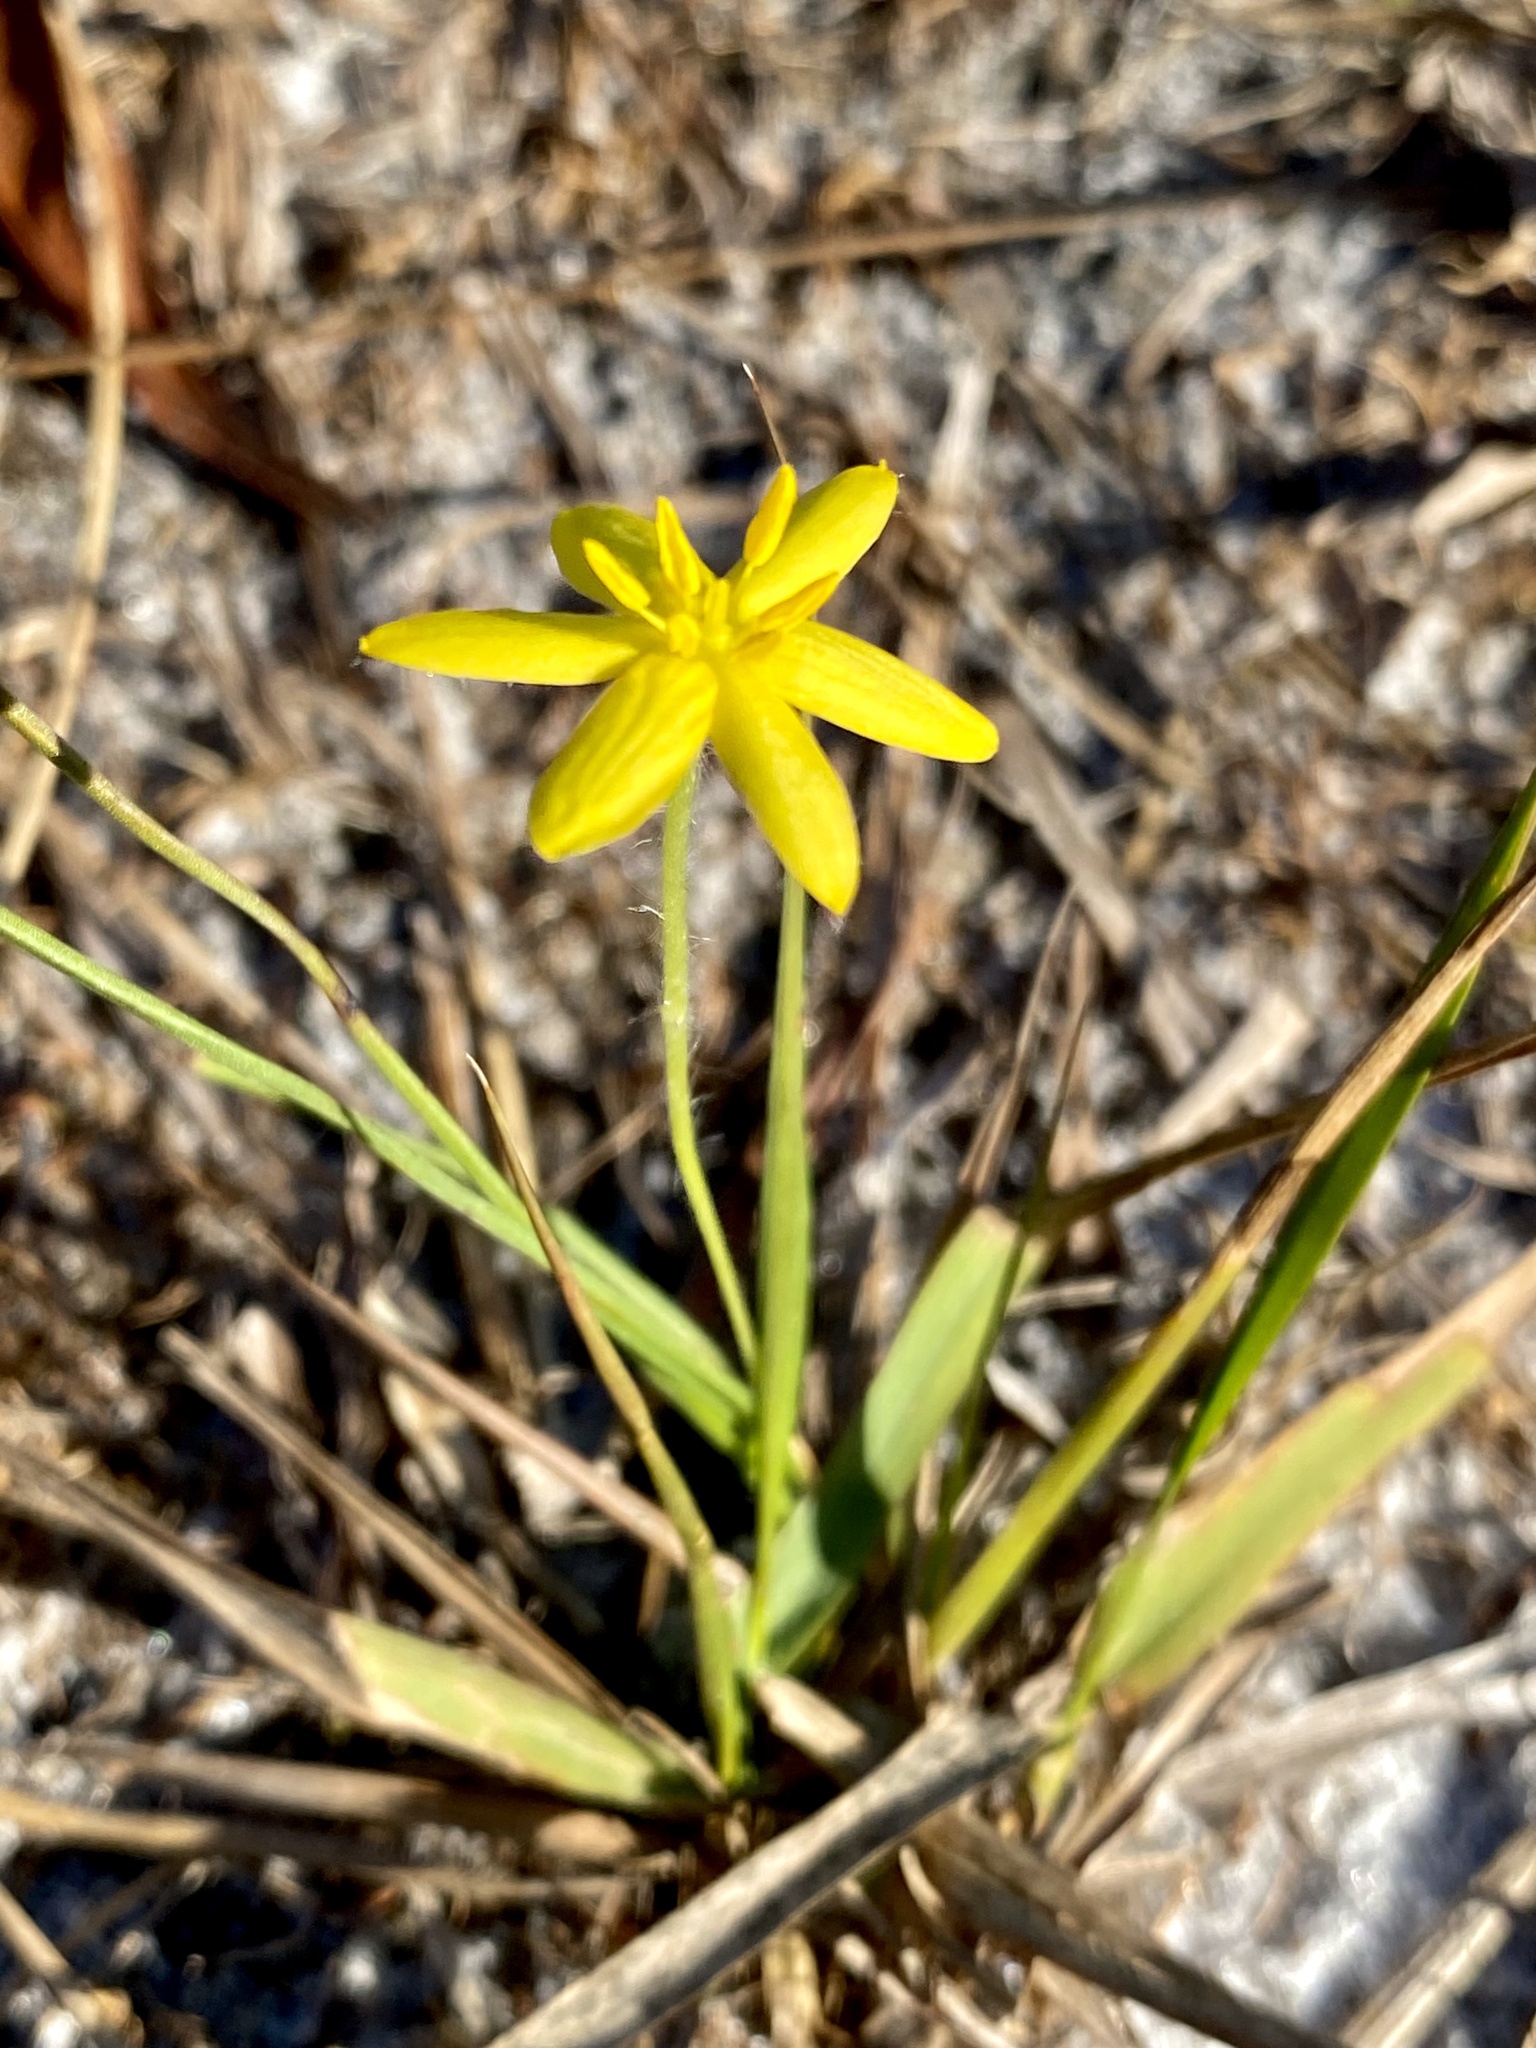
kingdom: Plantae
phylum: Tracheophyta
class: Liliopsida
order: Asparagales
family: Hypoxidaceae
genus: Hypoxis
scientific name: Hypoxis juncea
